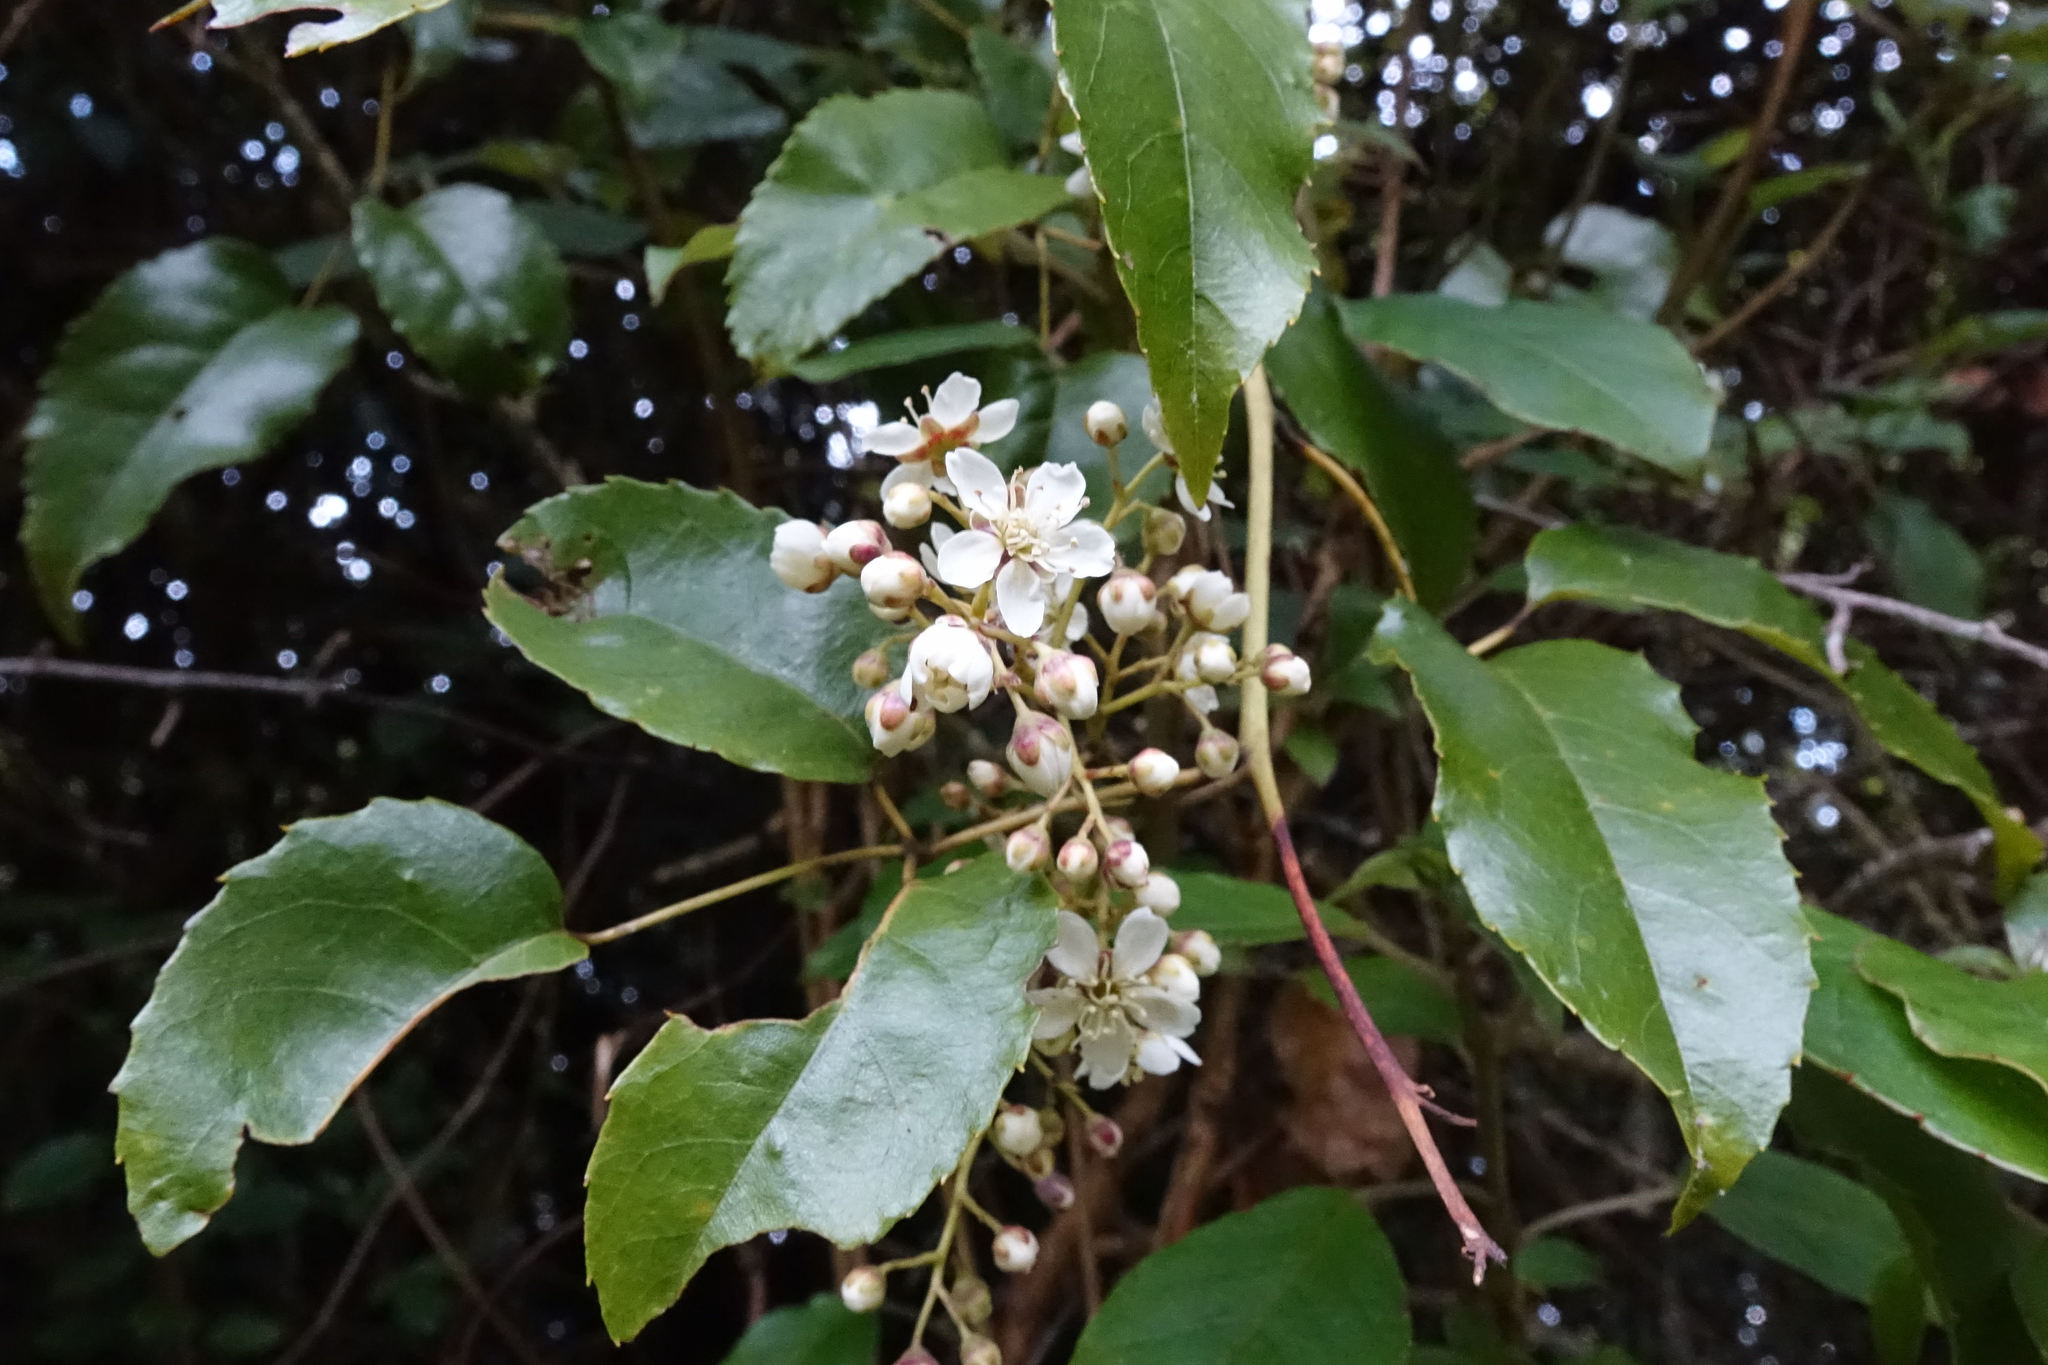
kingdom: Plantae
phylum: Tracheophyta
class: Magnoliopsida
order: Rosales
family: Rosaceae
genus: Rubus
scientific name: Rubus cissoides
